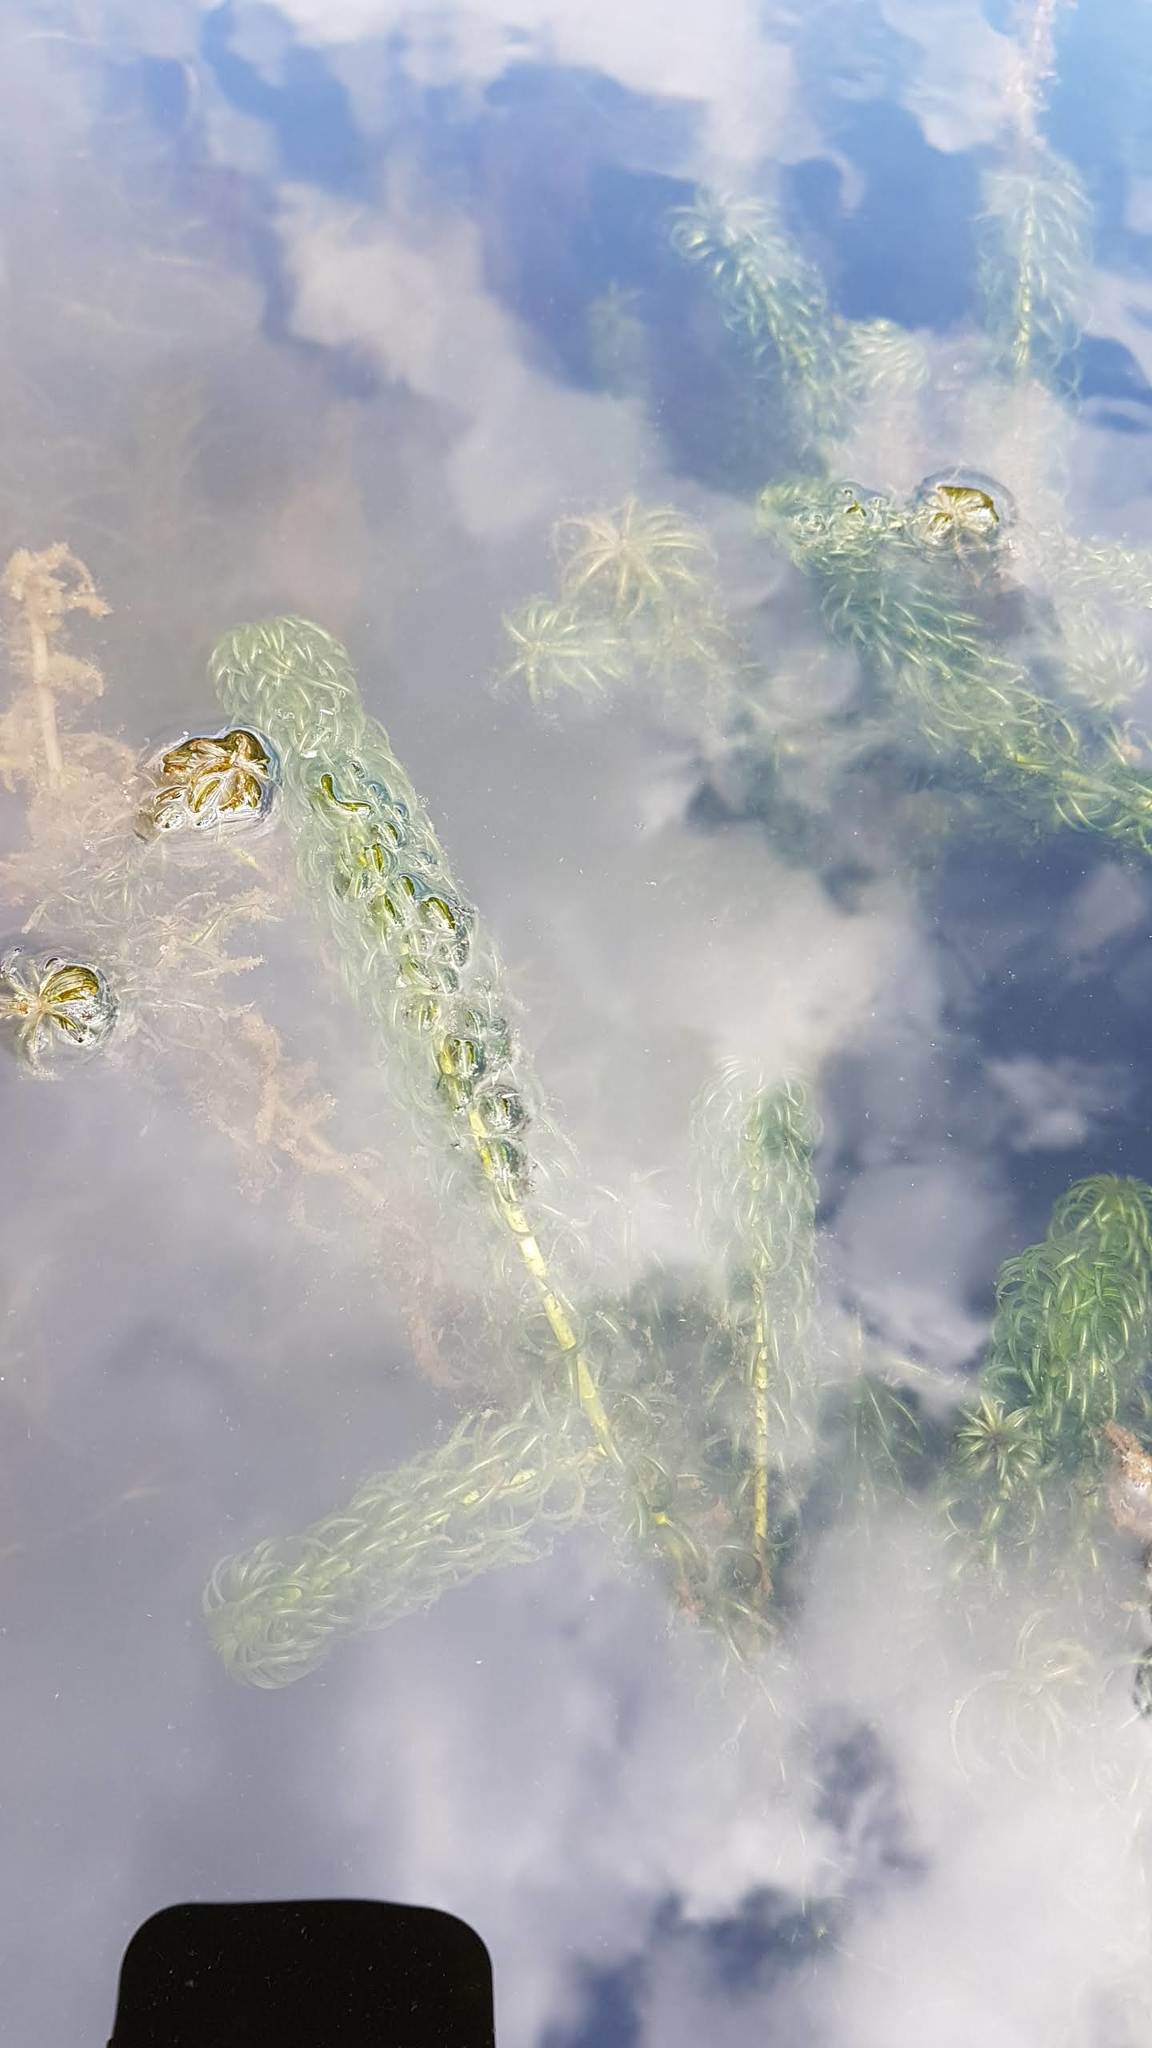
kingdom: Plantae
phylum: Tracheophyta
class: Liliopsida
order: Alismatales
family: Hydrocharitaceae
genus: Lagarosiphon
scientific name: Lagarosiphon major
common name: Curly waterweed
